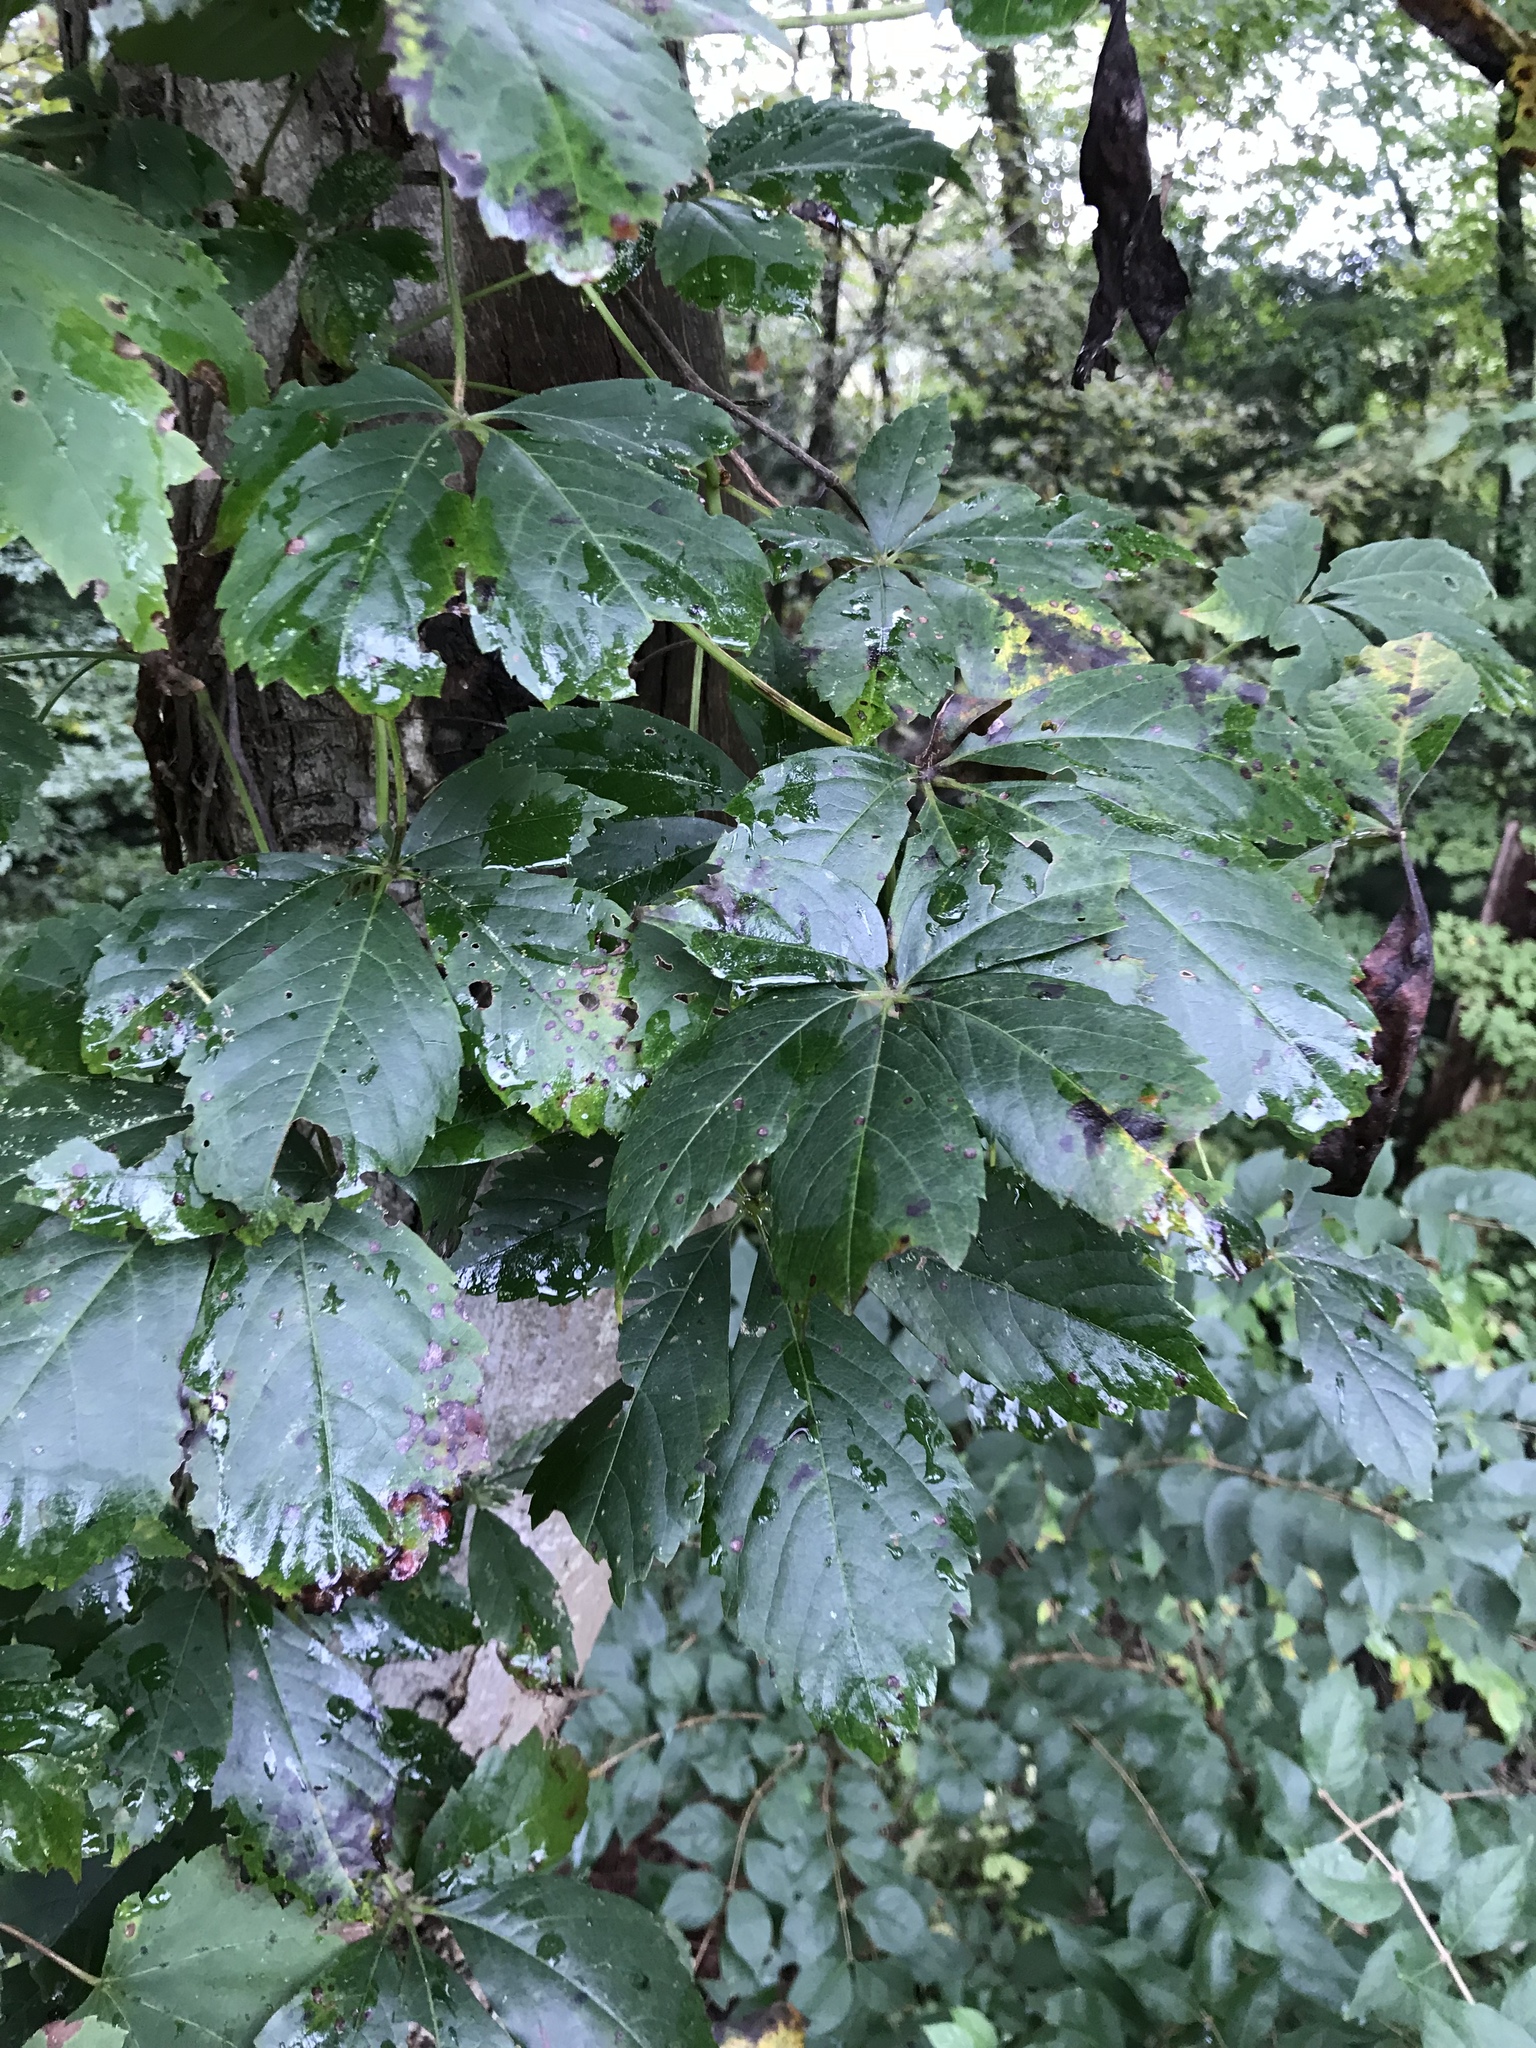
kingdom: Plantae
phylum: Tracheophyta
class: Magnoliopsida
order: Vitales
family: Vitaceae
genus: Parthenocissus
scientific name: Parthenocissus quinquefolia
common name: Virginia-creeper
